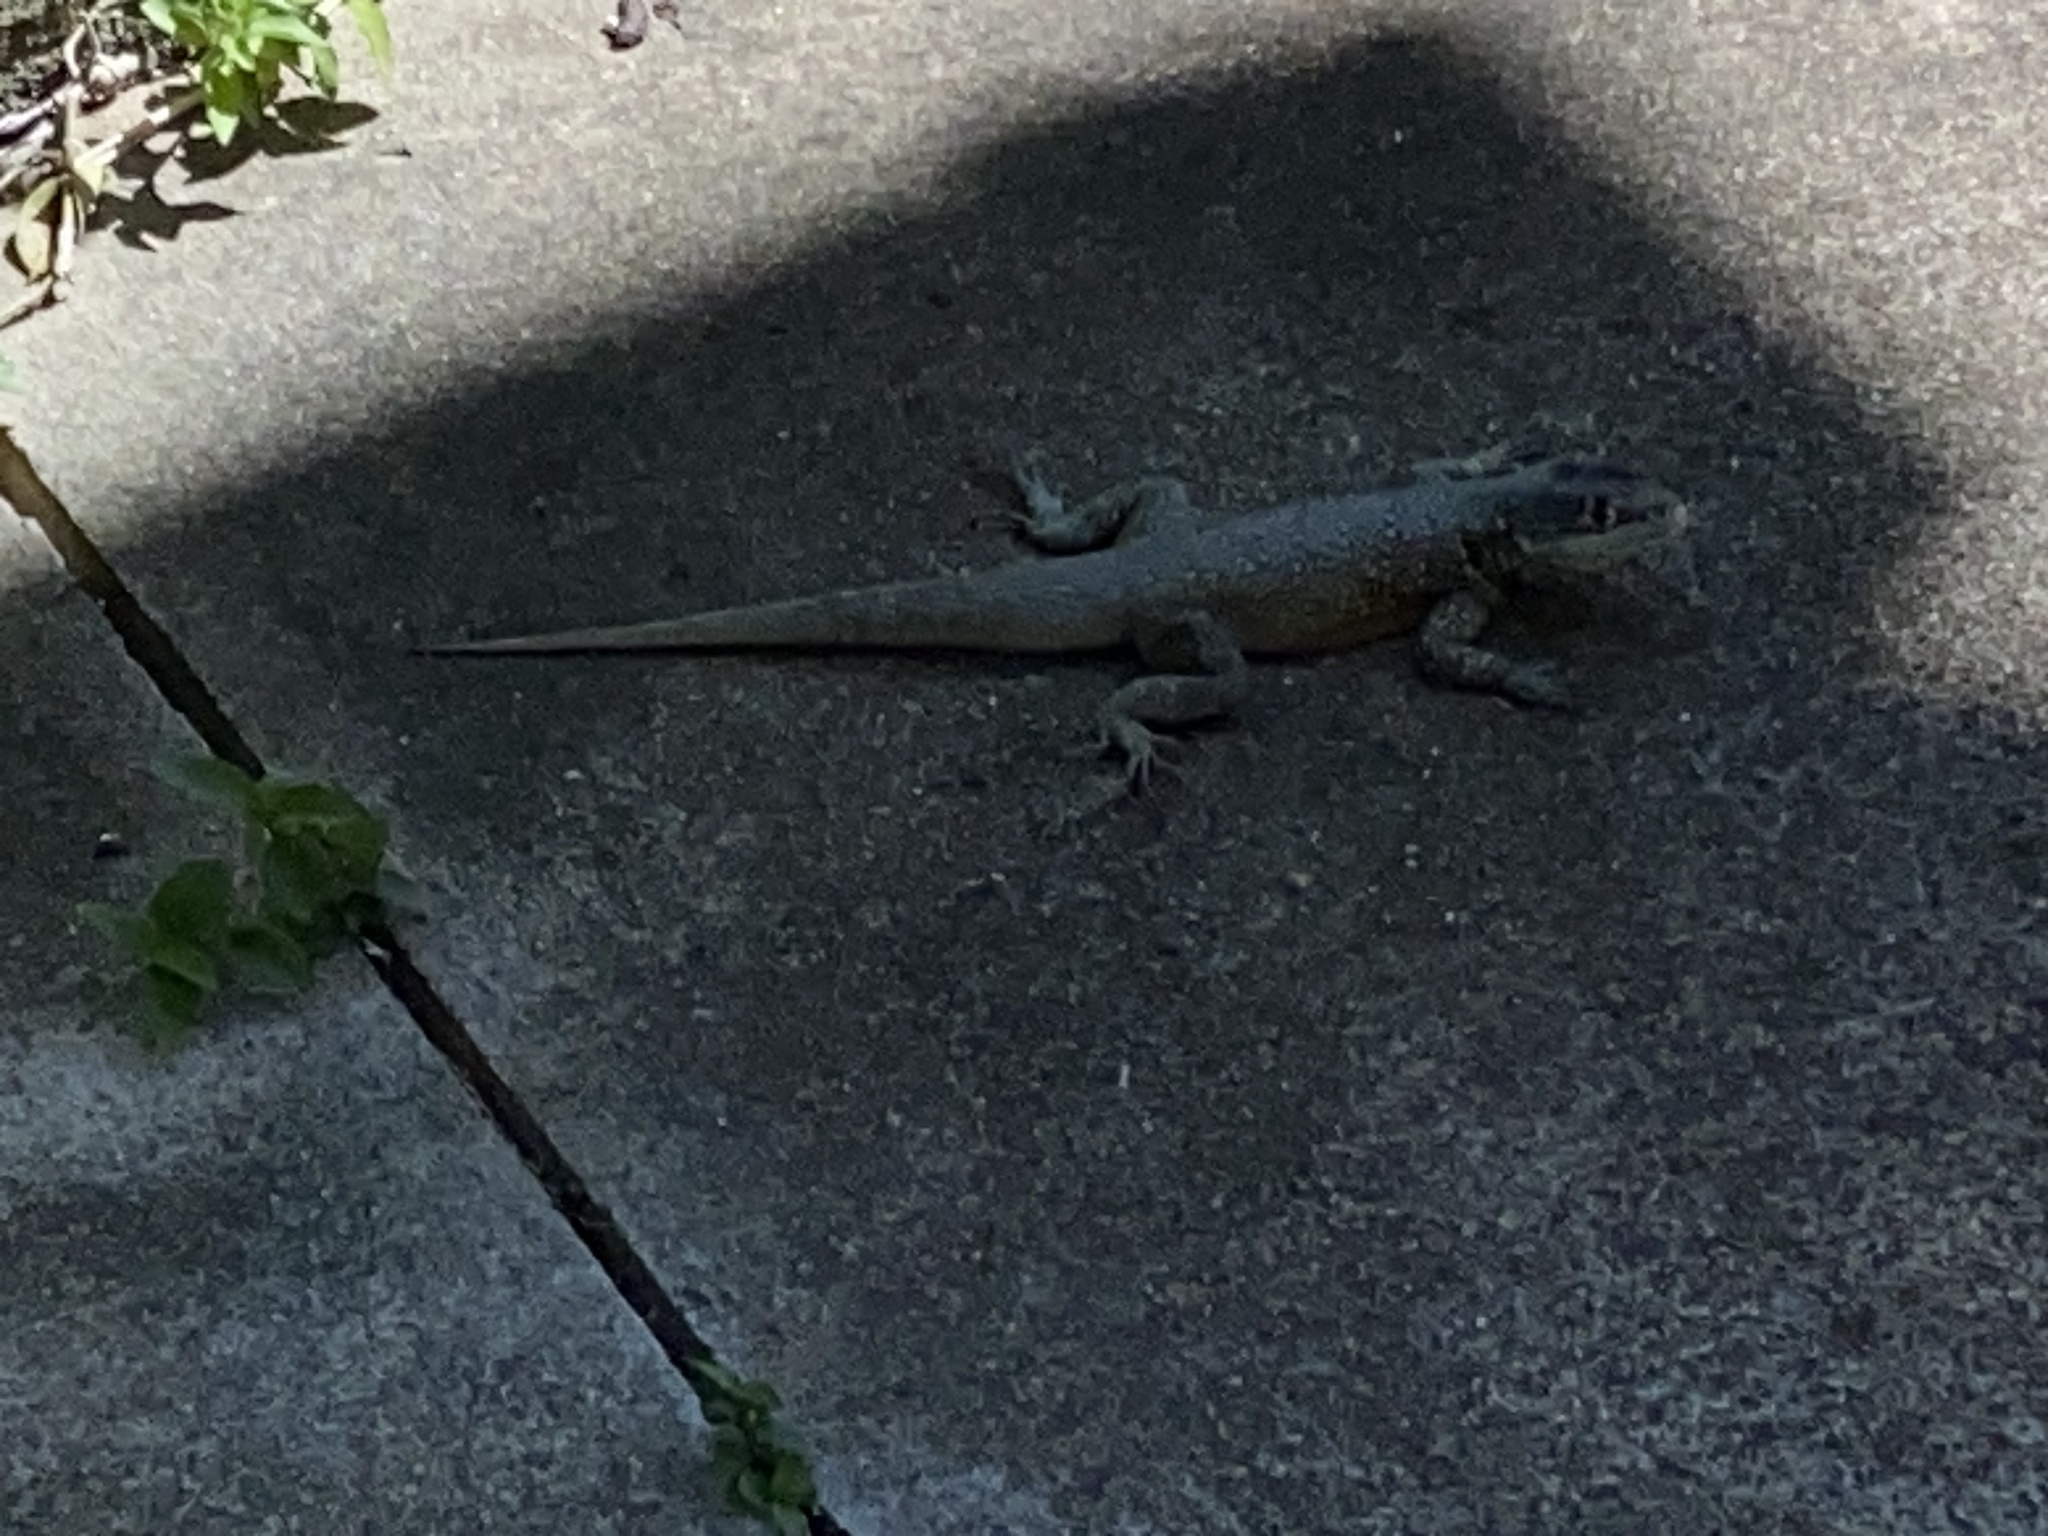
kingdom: Animalia
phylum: Chordata
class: Squamata
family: Tropiduridae
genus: Tropidurus
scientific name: Tropidurus torquatus
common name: Amazon lava lizard
